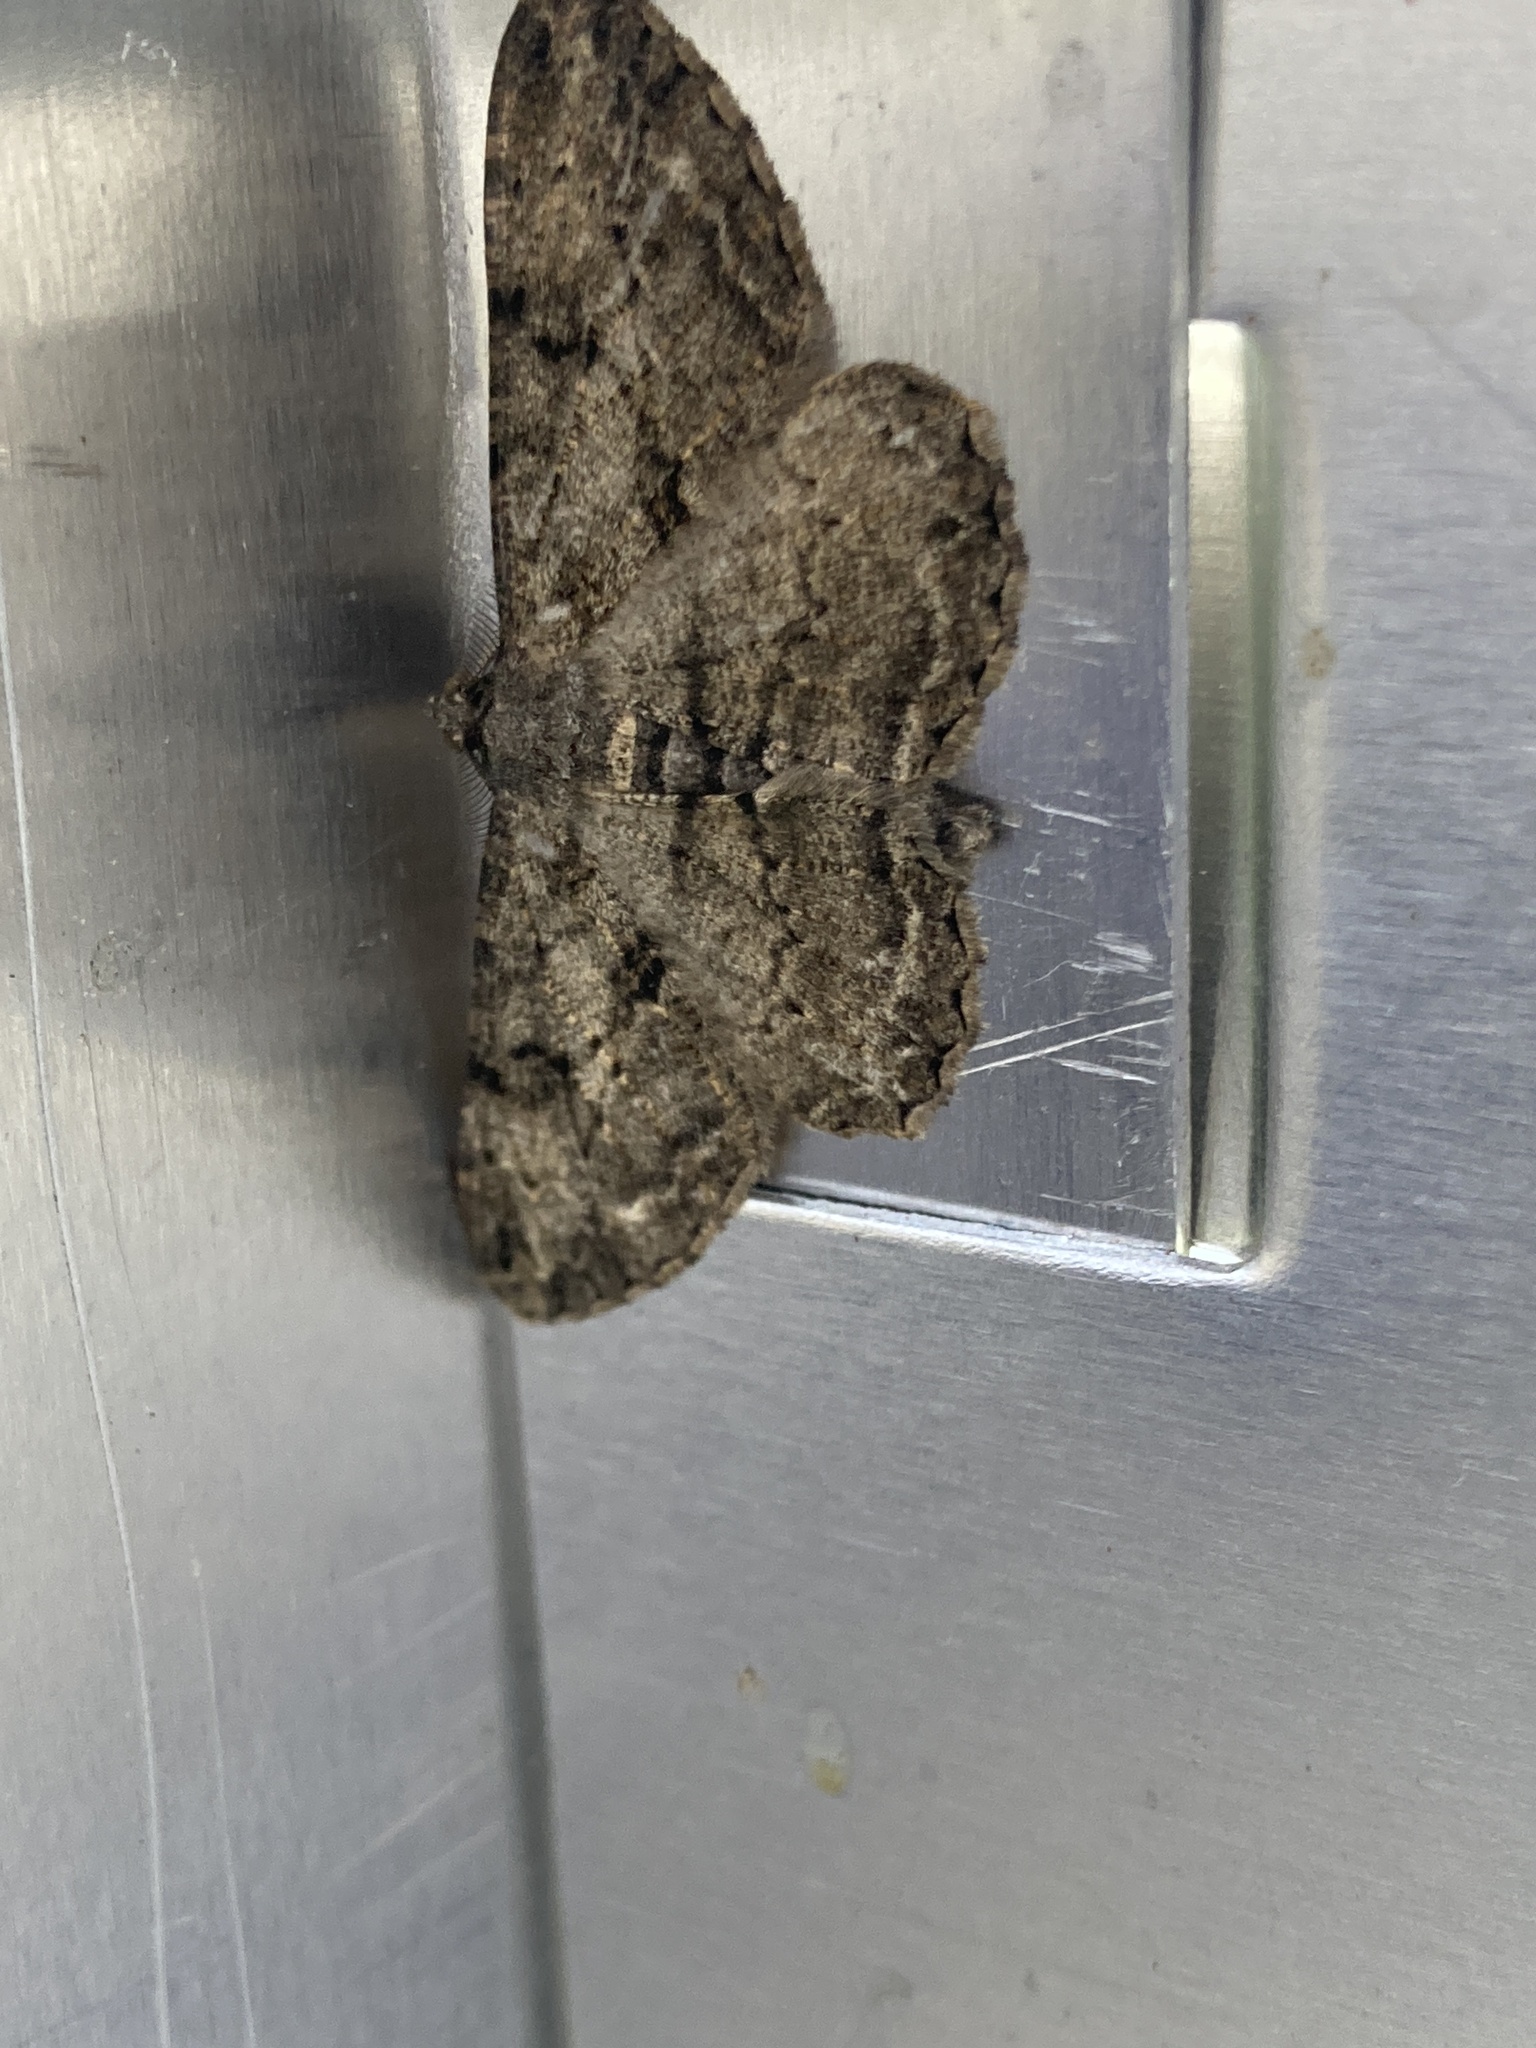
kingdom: Animalia
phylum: Arthropoda
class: Insecta
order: Lepidoptera
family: Geometridae
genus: Peribatodes
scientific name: Peribatodes rhomboidaria
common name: Willow beauty
